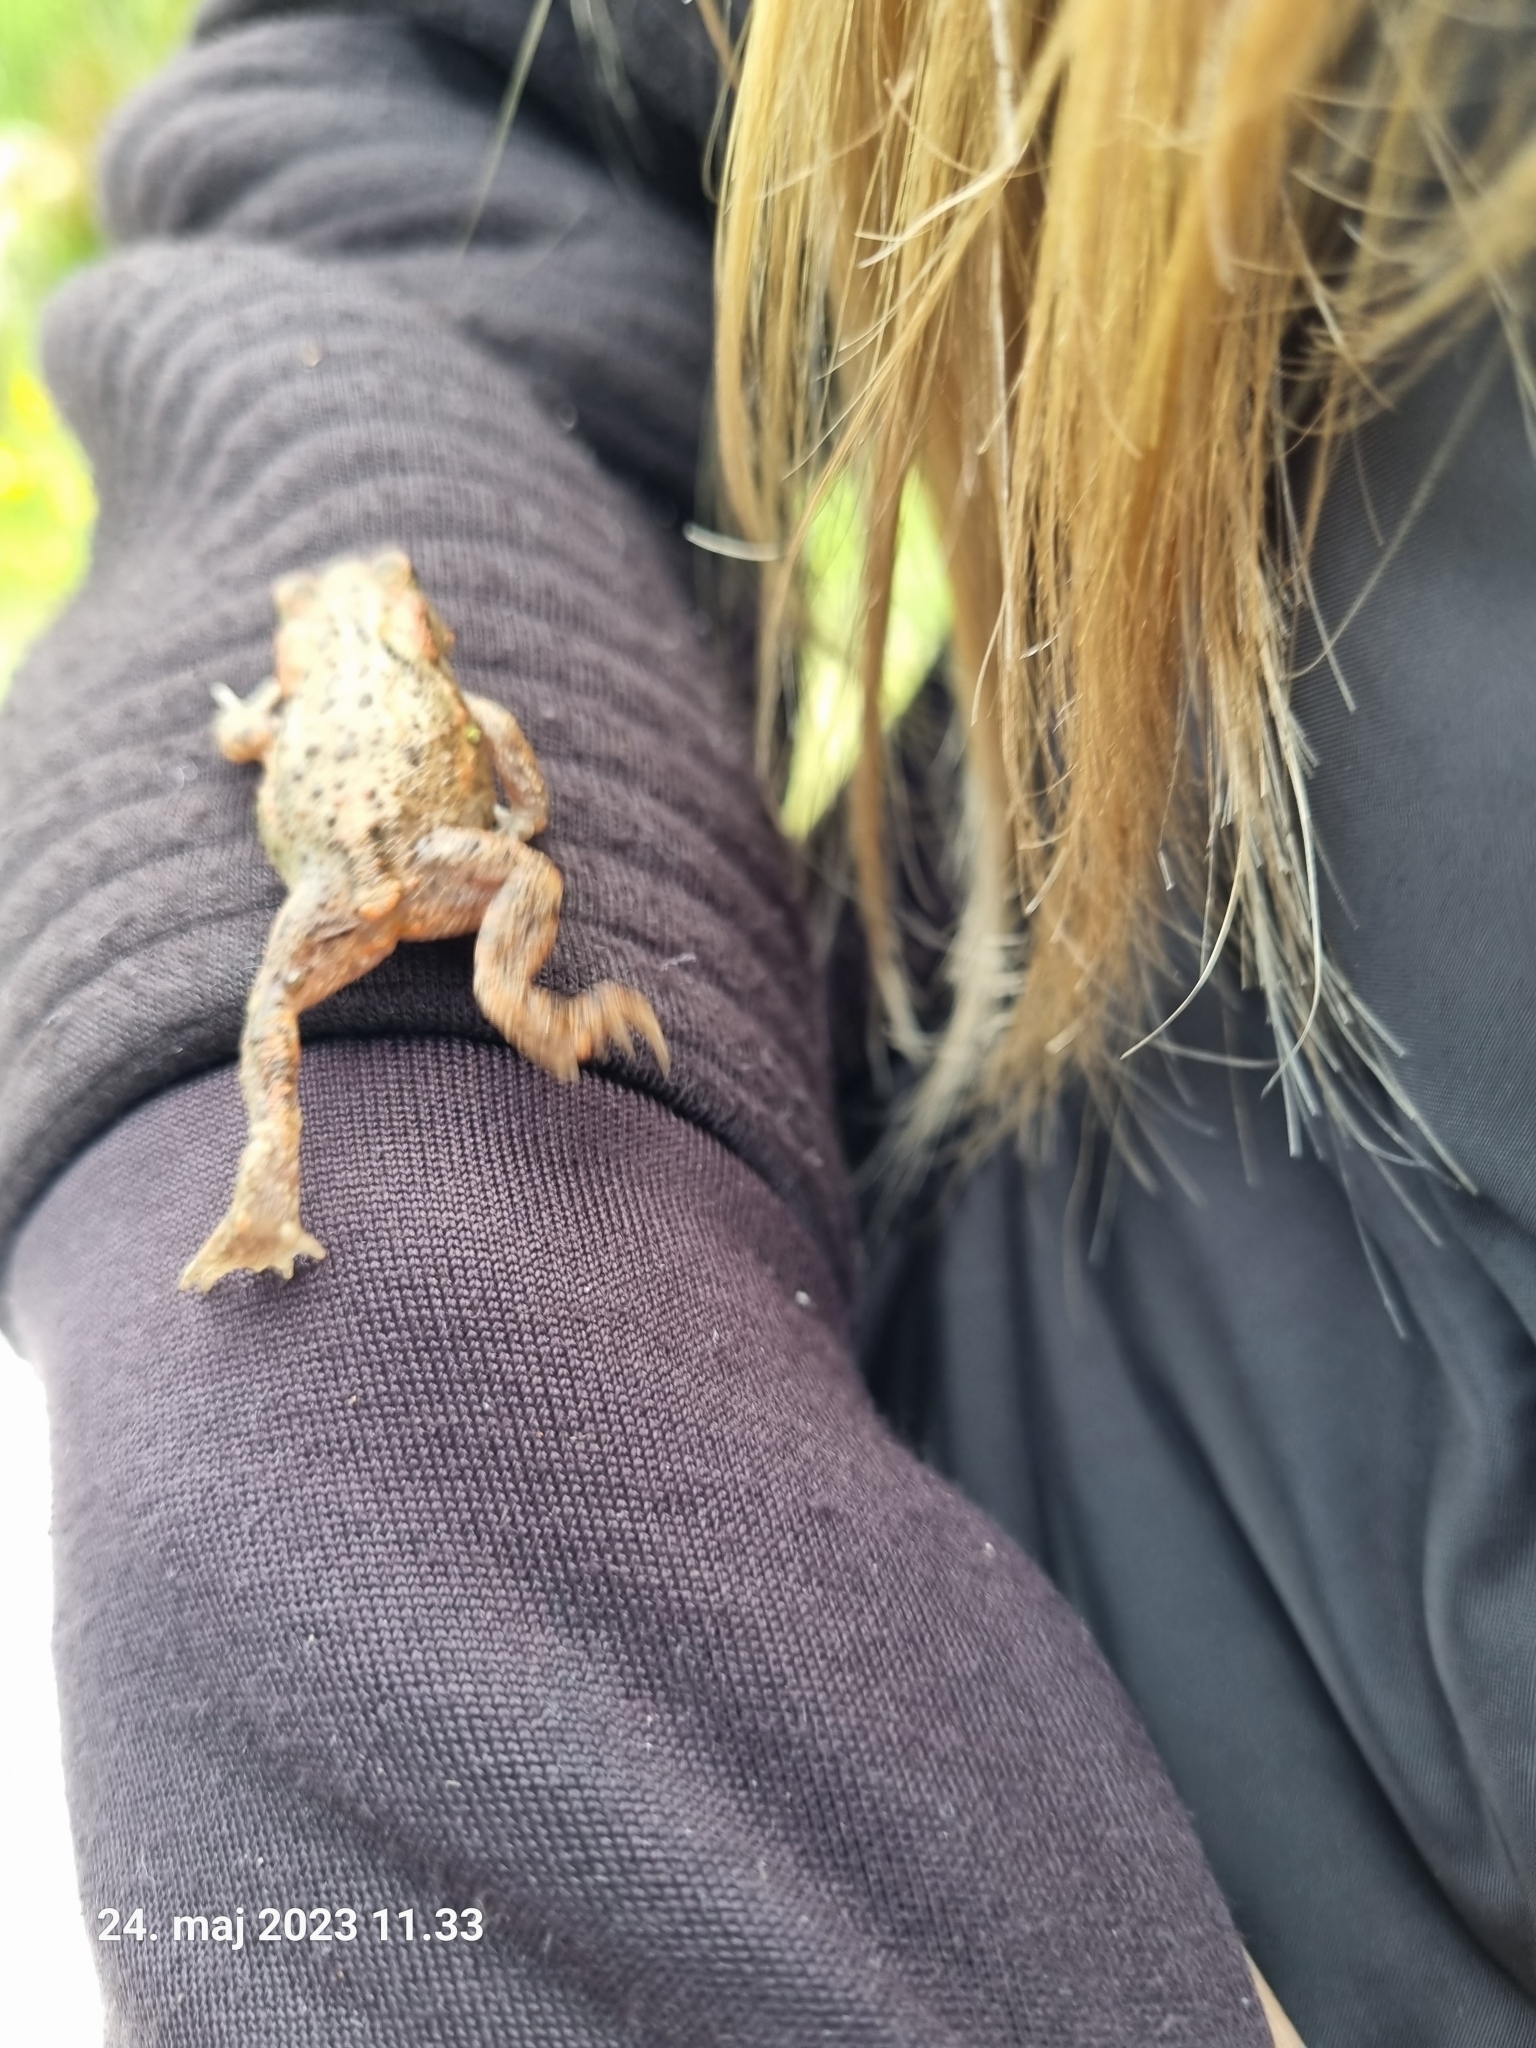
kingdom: Animalia
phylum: Chordata
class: Amphibia
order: Anura
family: Bufonidae
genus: Bufo
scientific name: Bufo bufo
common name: Common toad
